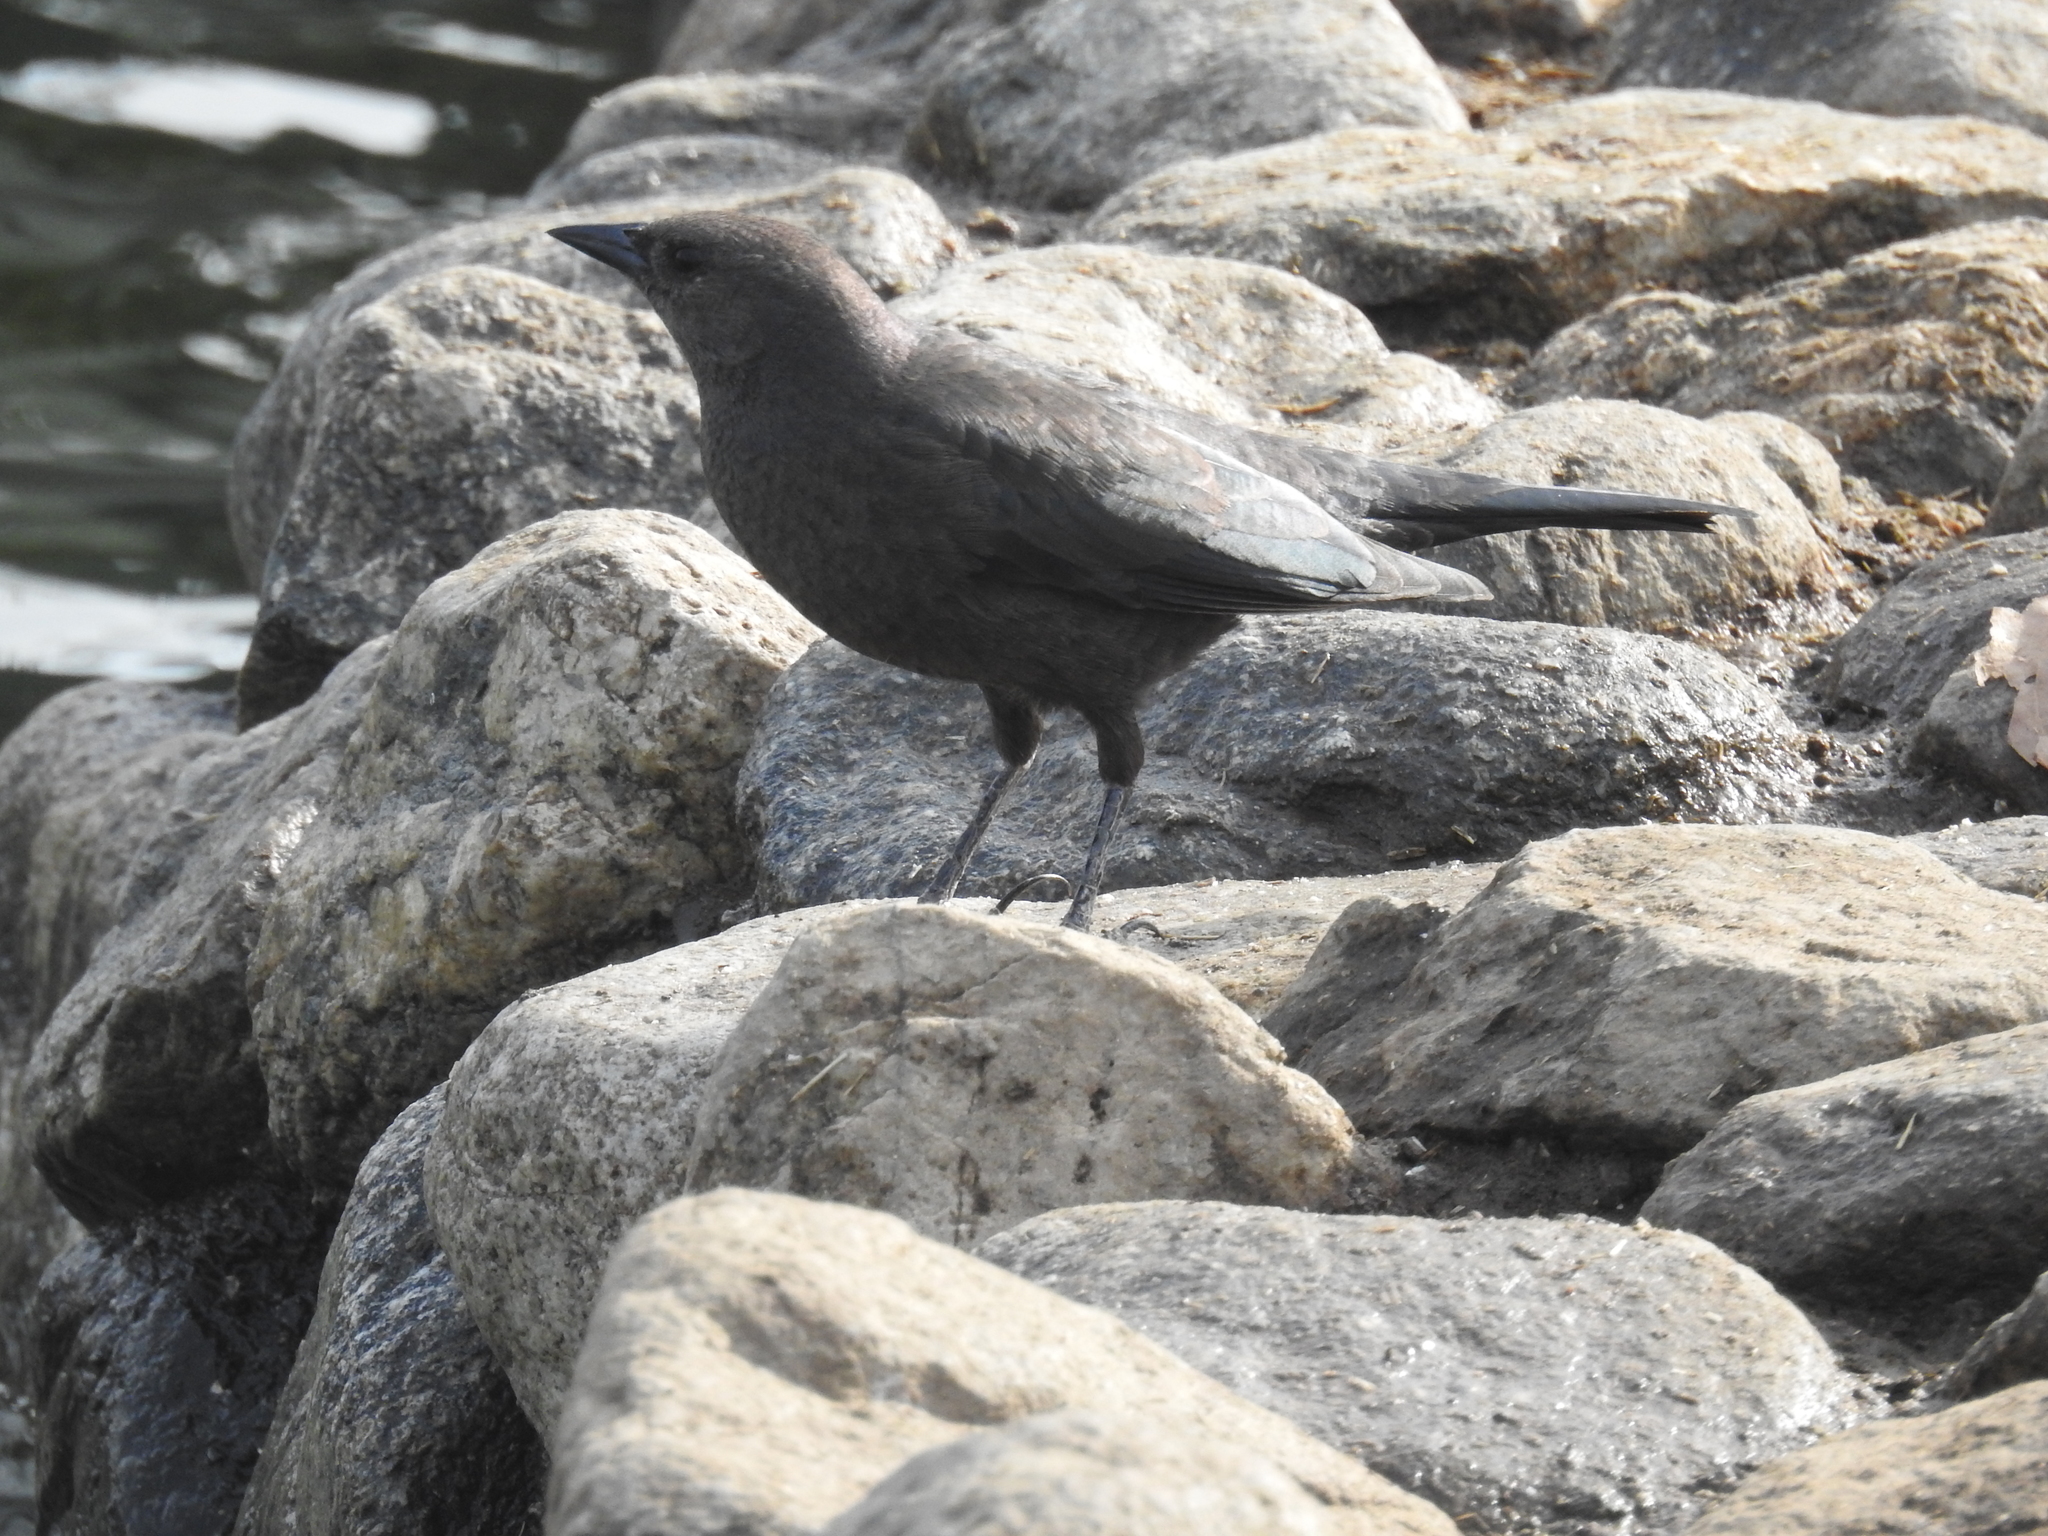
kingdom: Animalia
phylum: Chordata
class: Aves
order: Passeriformes
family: Icteridae
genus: Euphagus
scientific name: Euphagus cyanocephalus
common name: Brewer's blackbird
